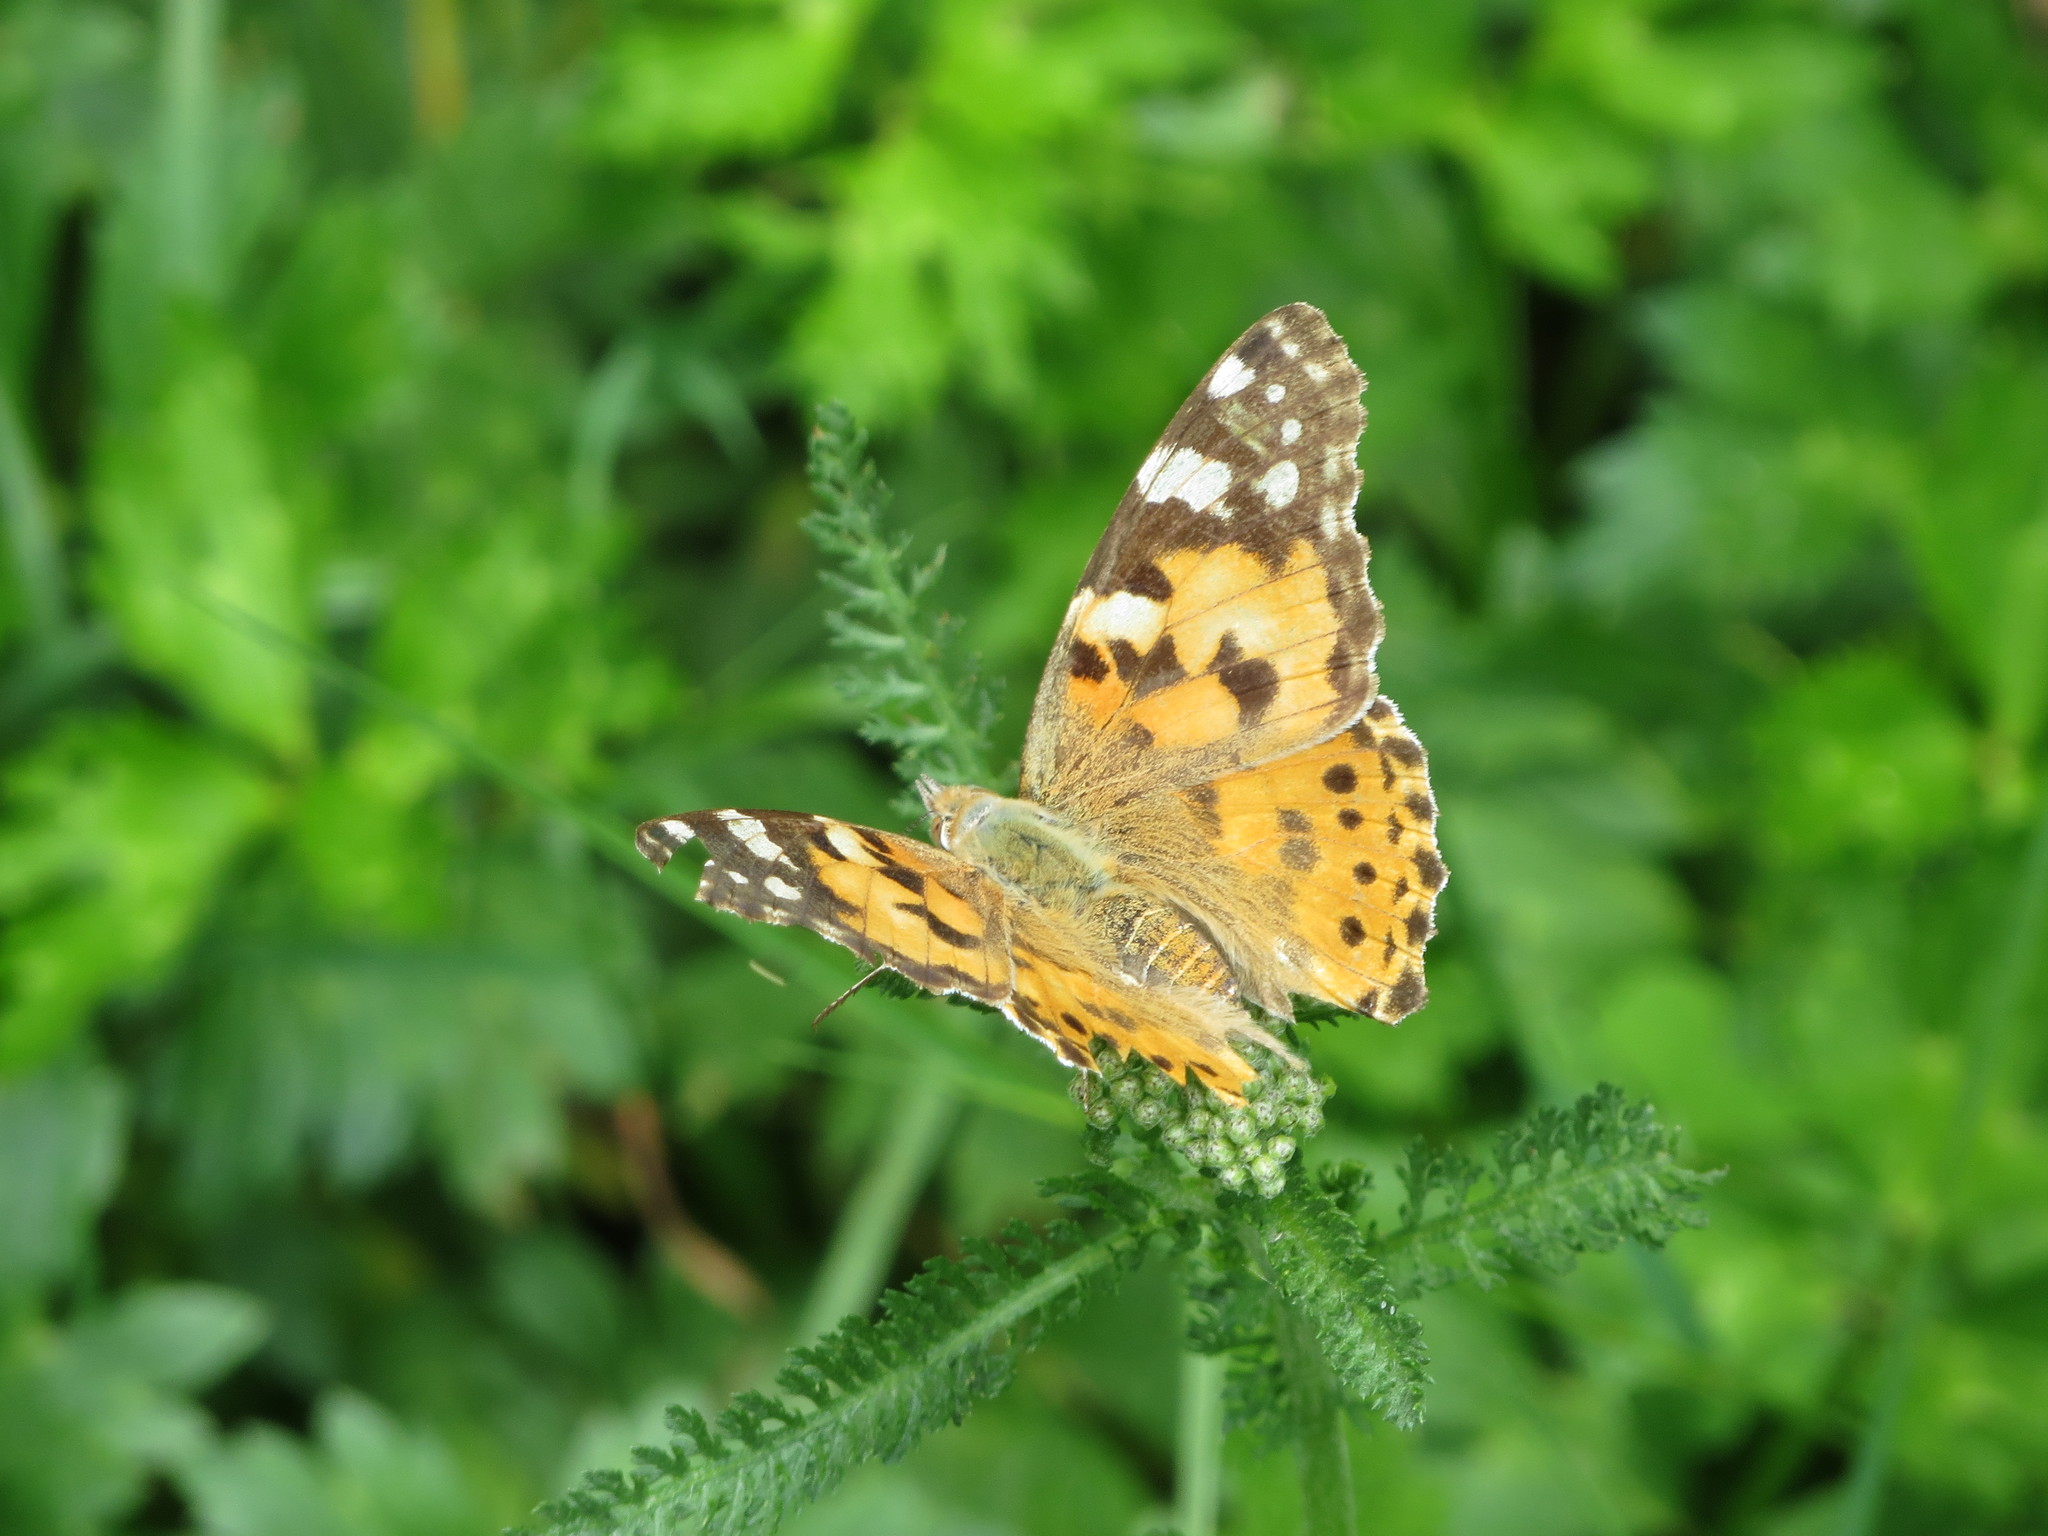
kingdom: Animalia
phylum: Arthropoda
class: Insecta
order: Lepidoptera
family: Nymphalidae
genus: Vanessa
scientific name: Vanessa cardui
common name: Painted lady
